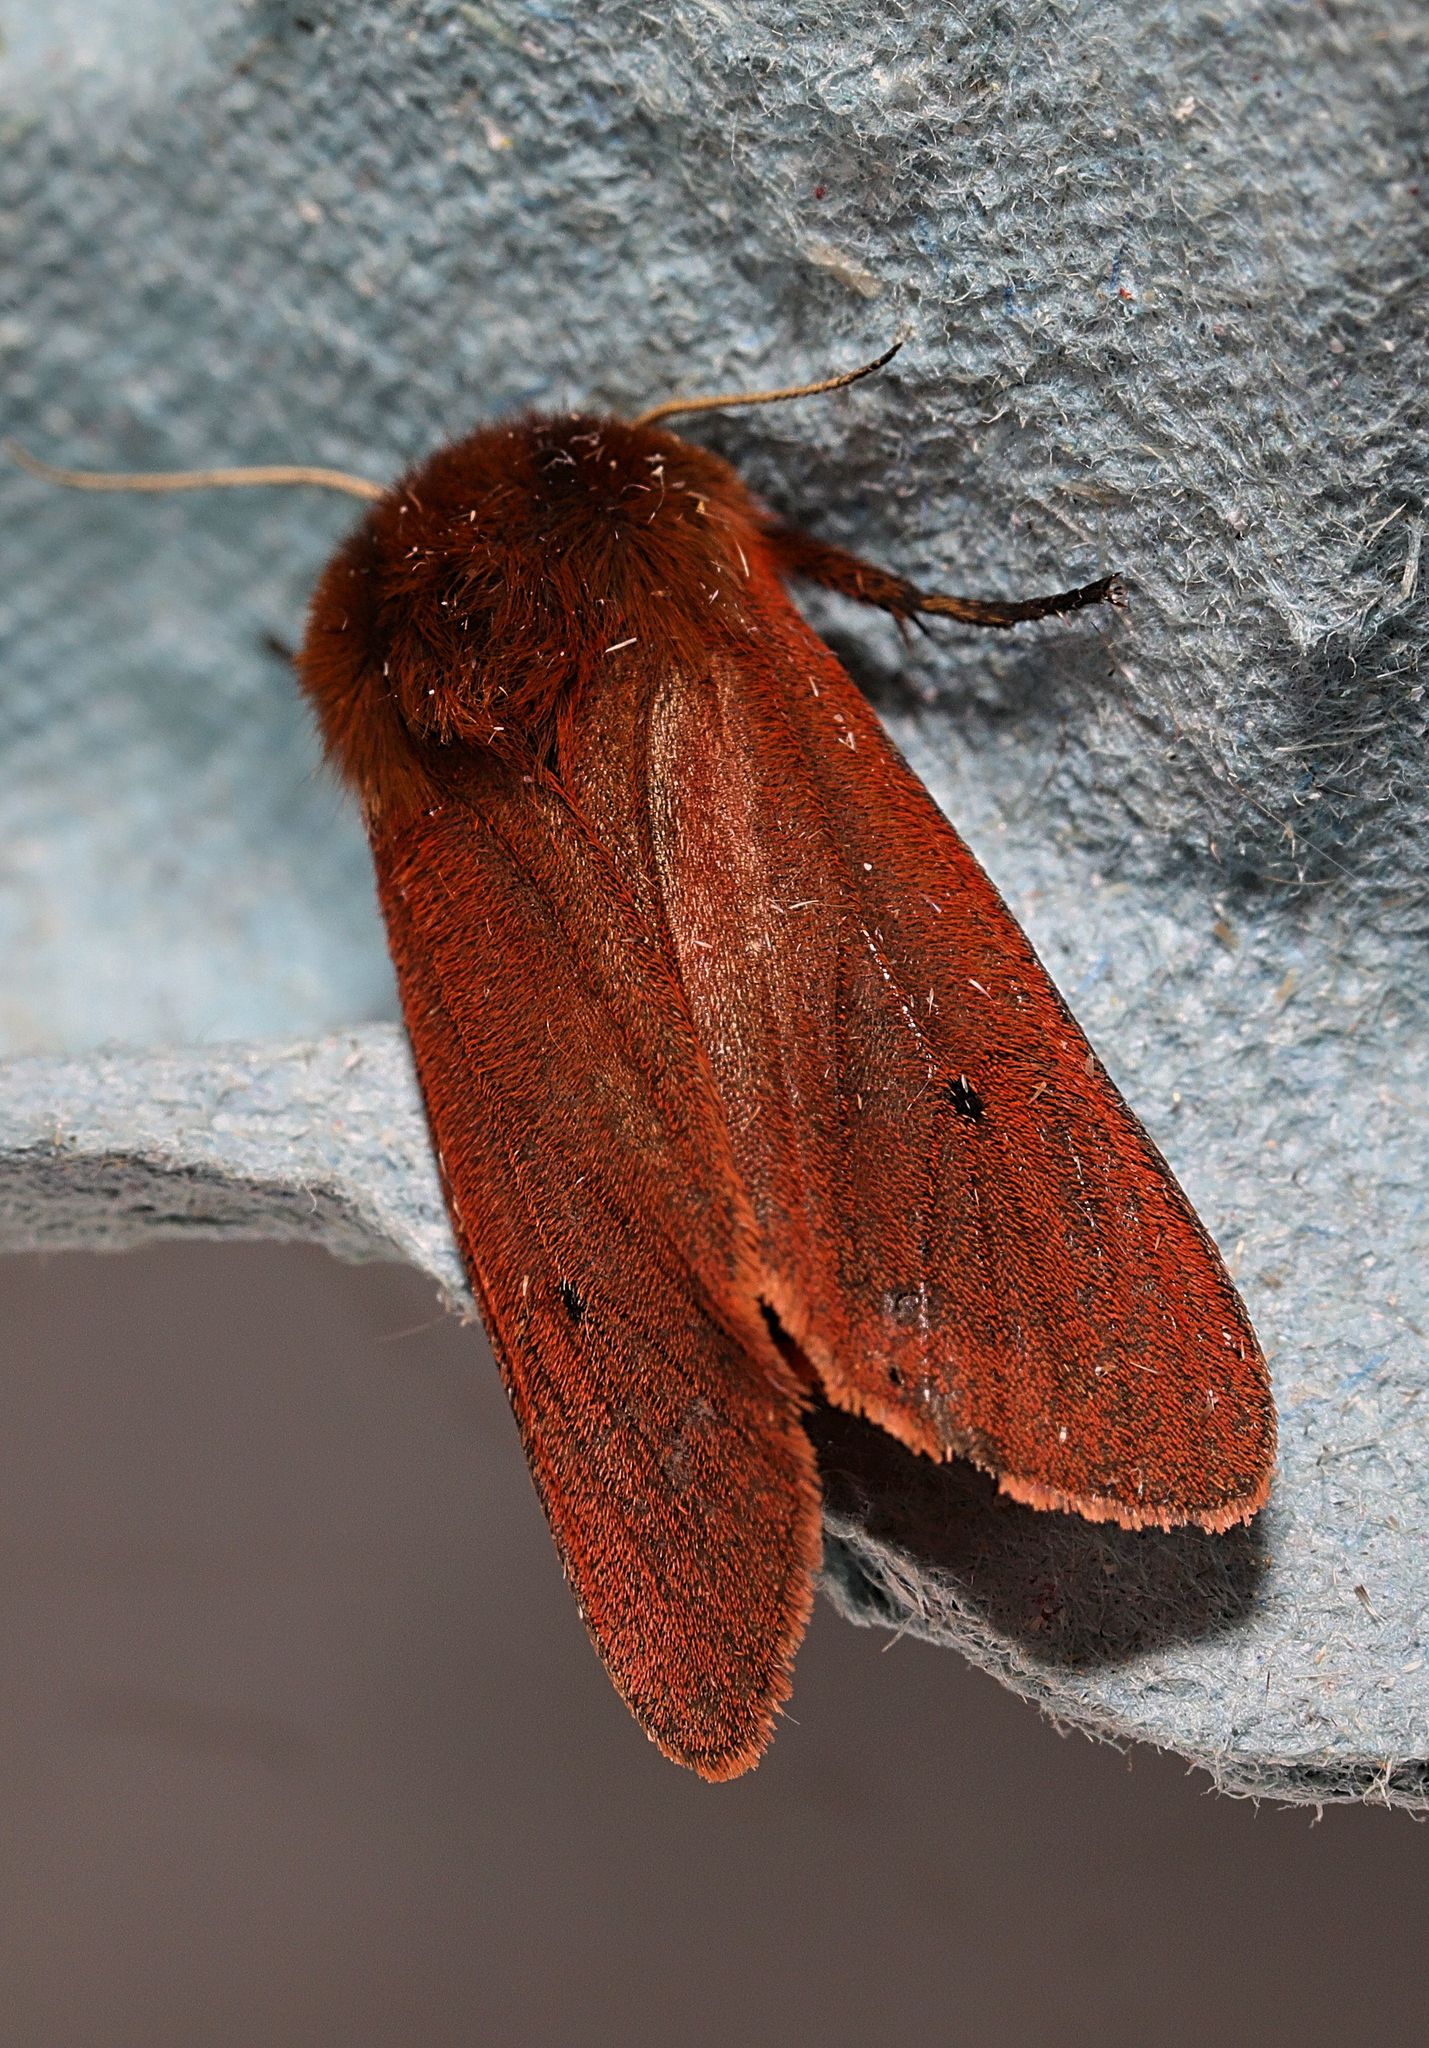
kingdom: Animalia
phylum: Arthropoda
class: Insecta
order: Lepidoptera
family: Erebidae
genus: Phragmatobia
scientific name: Phragmatobia fuliginosa
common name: Ruby tiger
